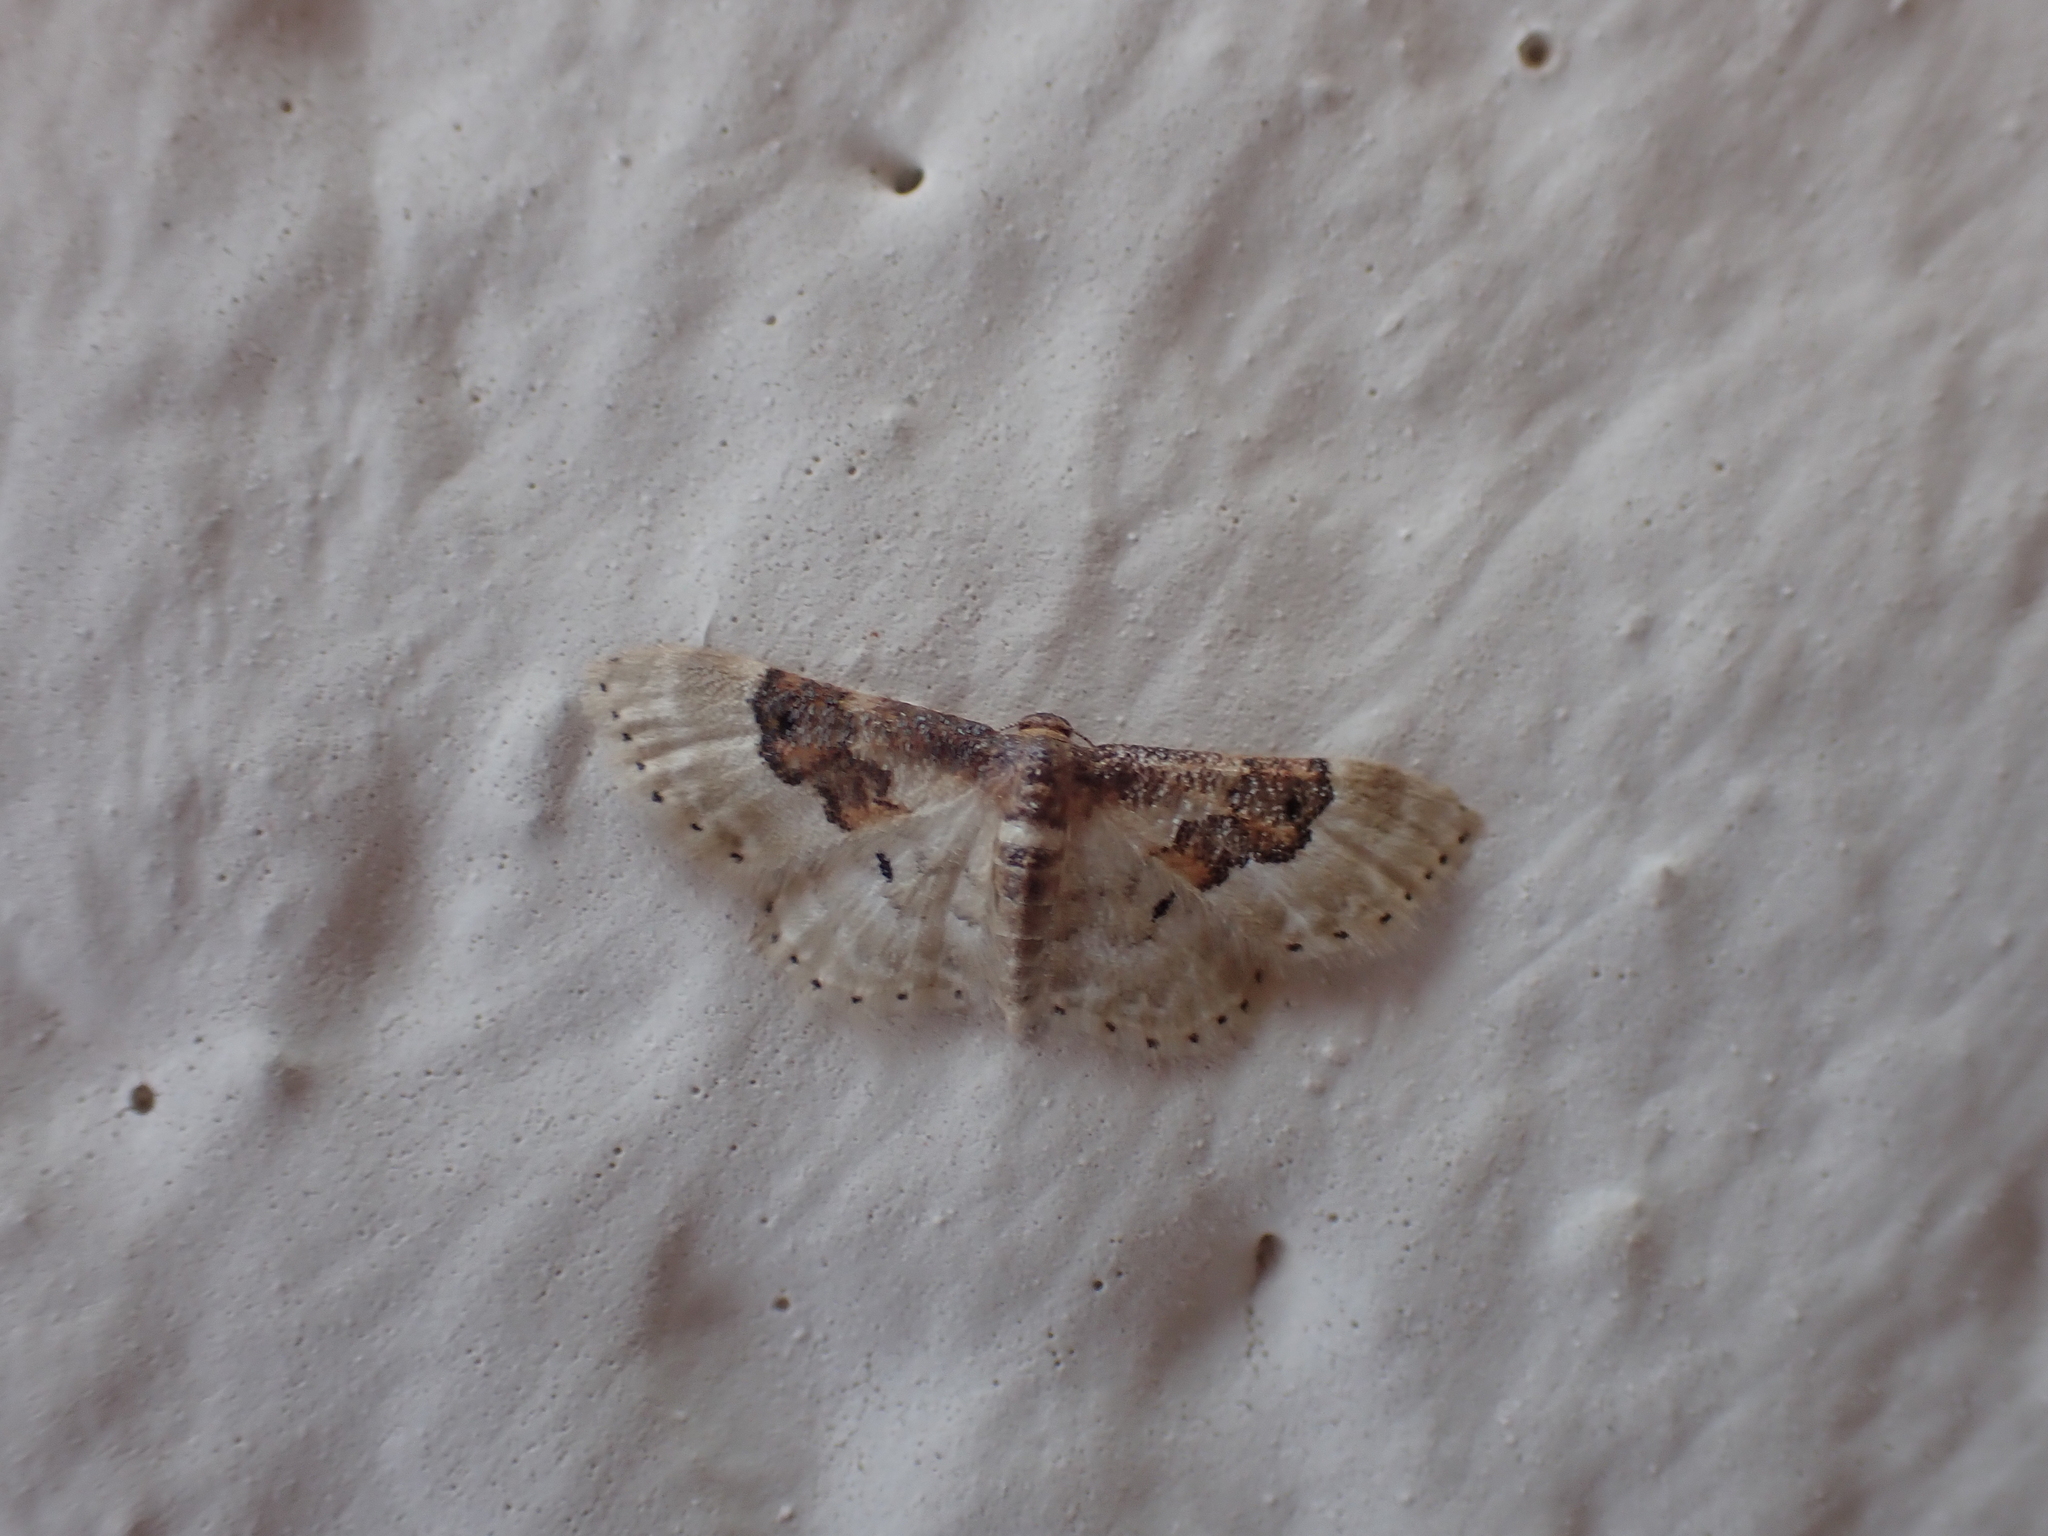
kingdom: Animalia
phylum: Arthropoda
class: Insecta
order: Lepidoptera
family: Geometridae
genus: Idaea
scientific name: Idaea rusticata
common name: Least carpet
